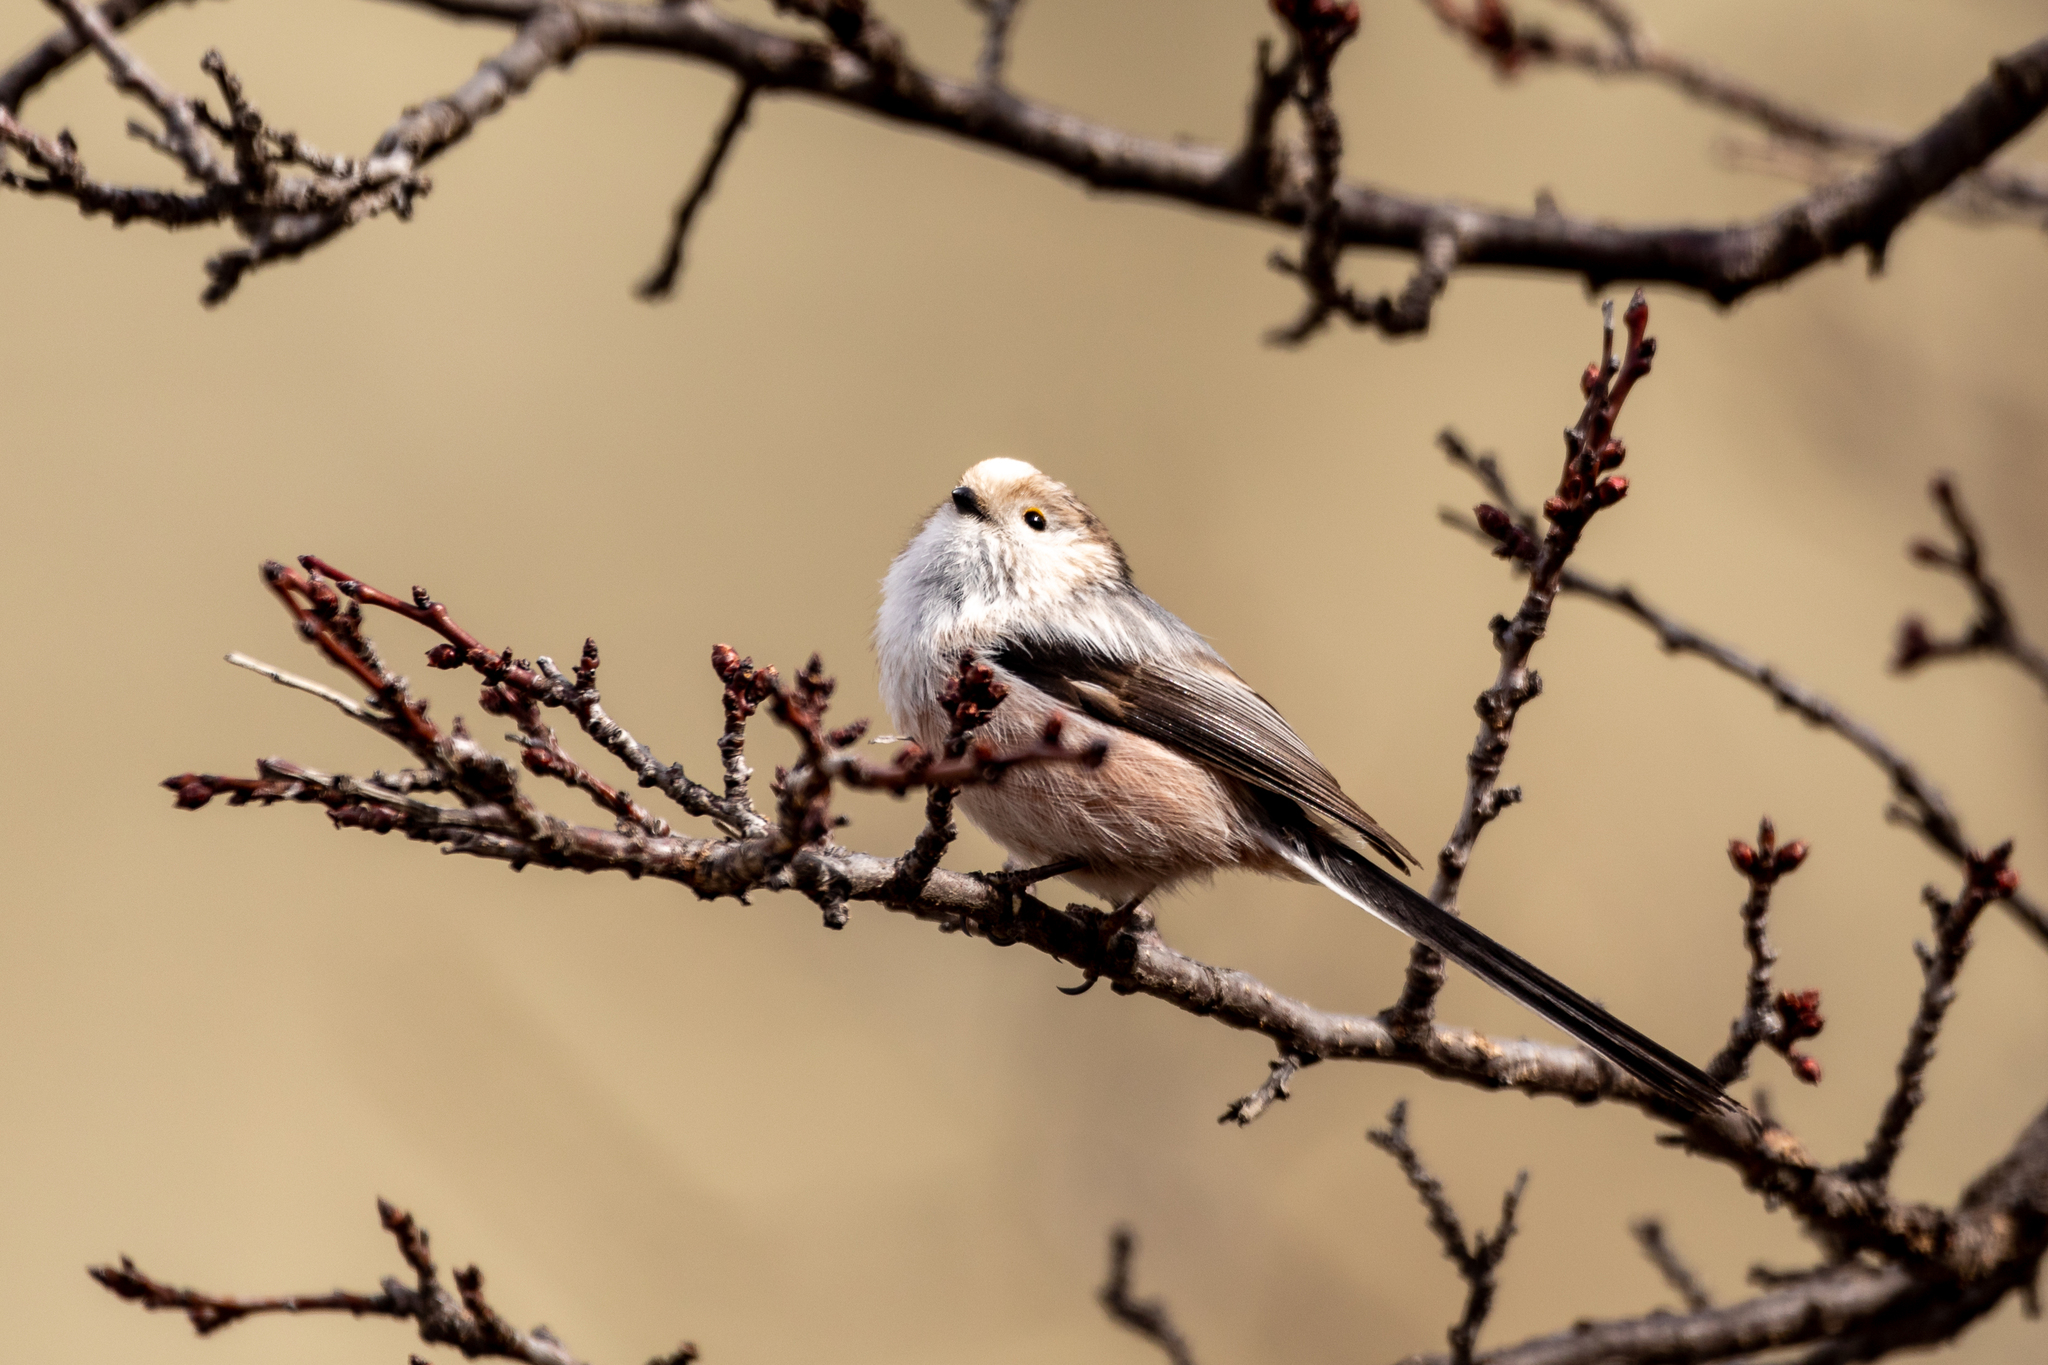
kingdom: Animalia
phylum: Chordata
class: Aves
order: Passeriformes
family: Aegithalidae
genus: Aegithalos
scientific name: Aegithalos caudatus
